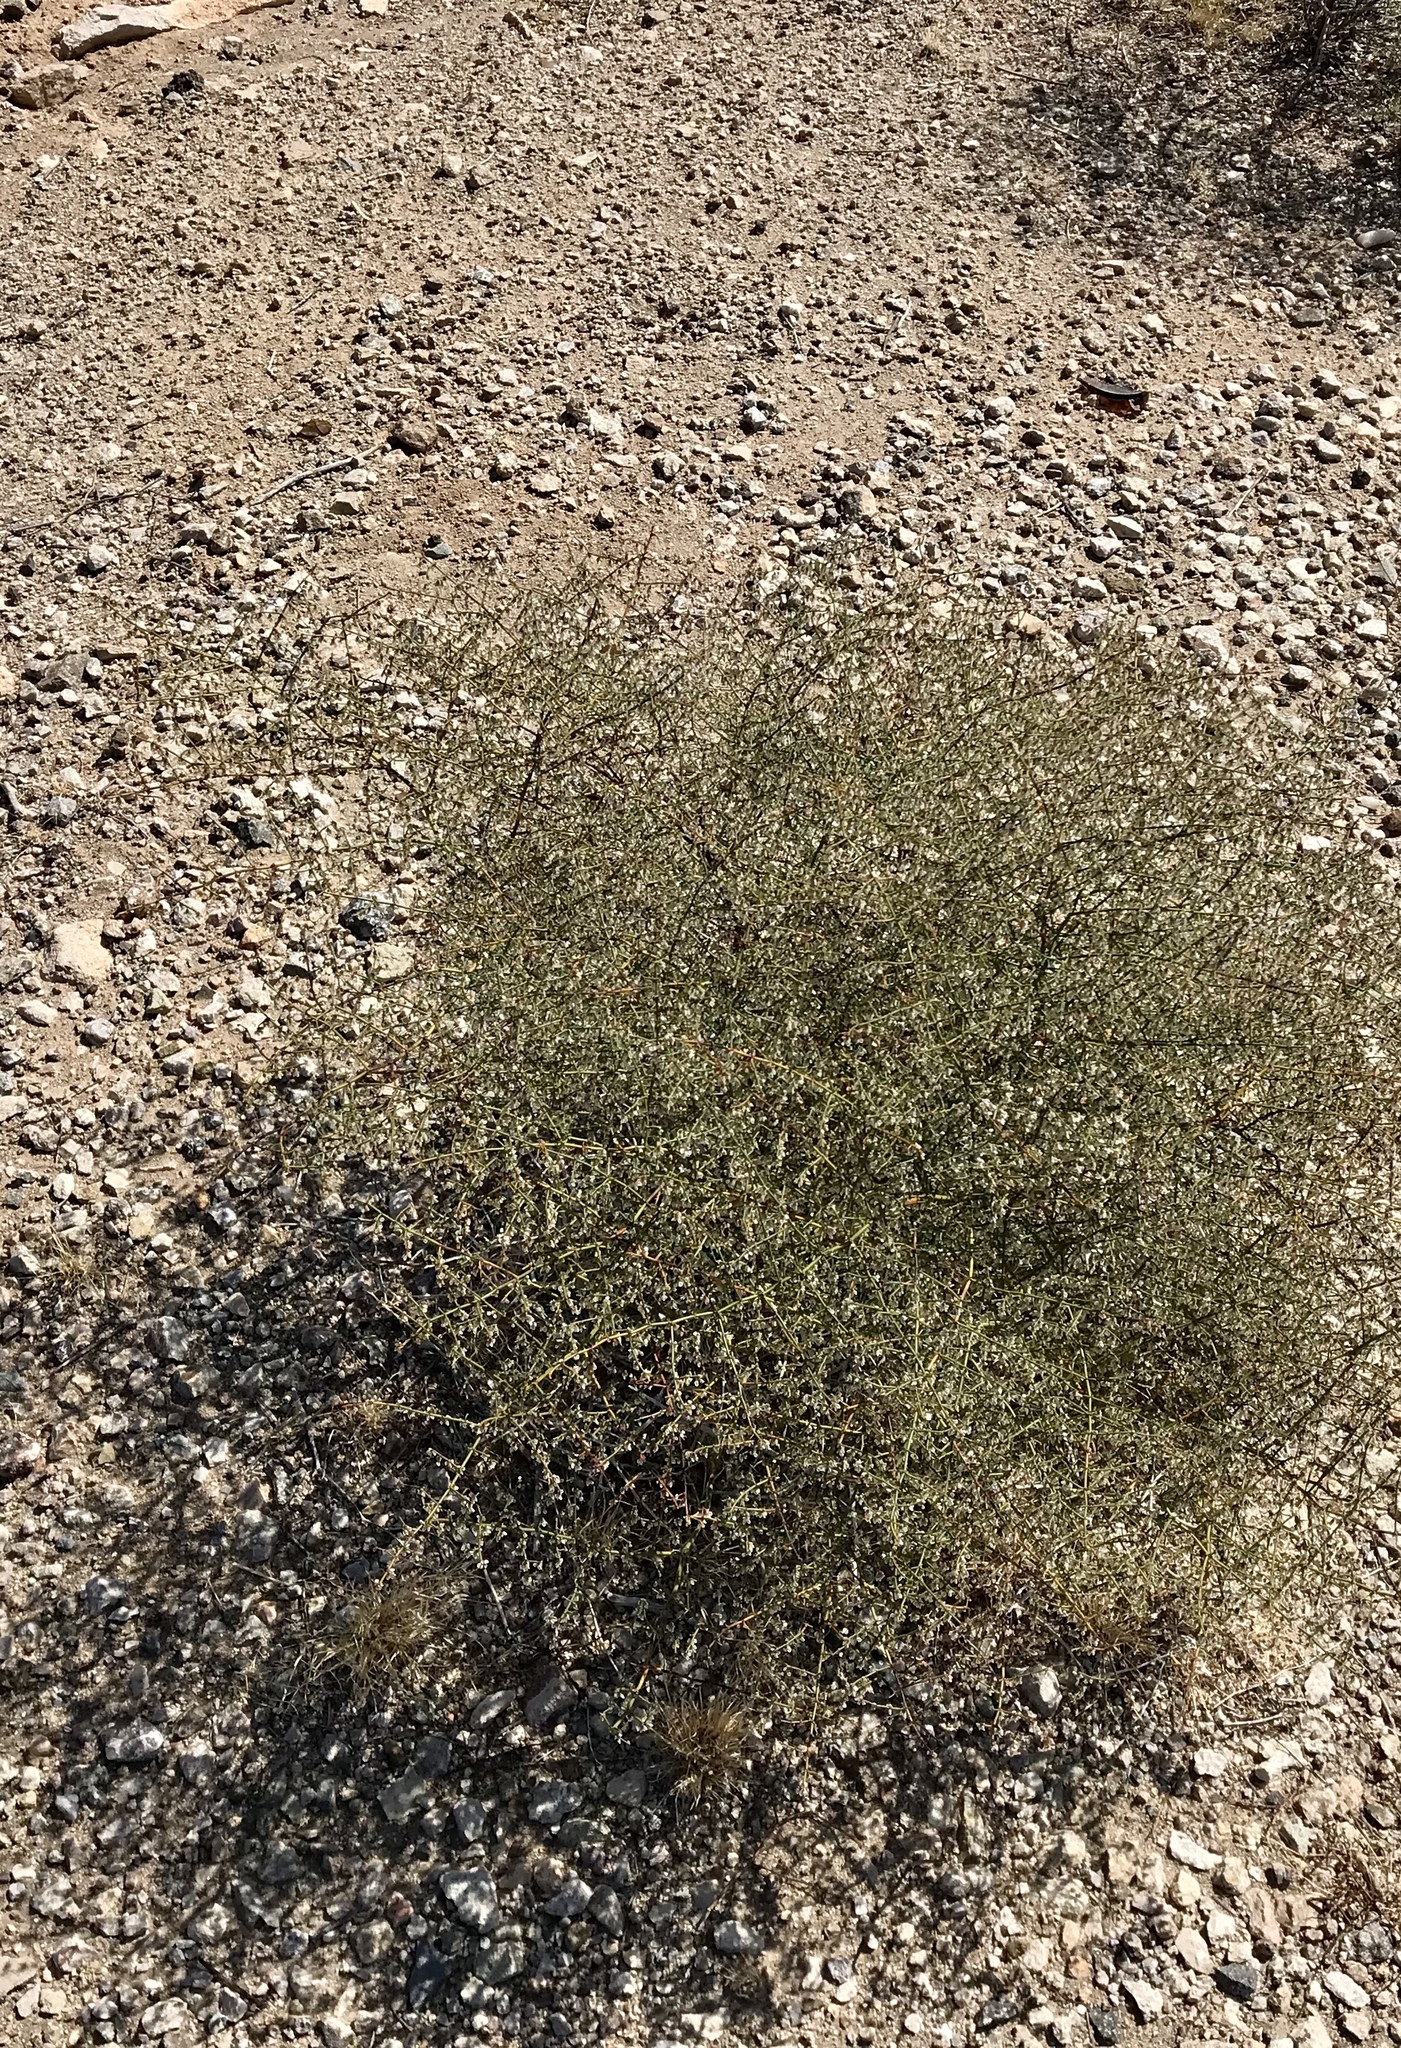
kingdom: Plantae
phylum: Tracheophyta
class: Magnoliopsida
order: Caryophyllales
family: Polygonaceae
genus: Eriogonum
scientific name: Eriogonum deflexum
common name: Skeleton-weed
